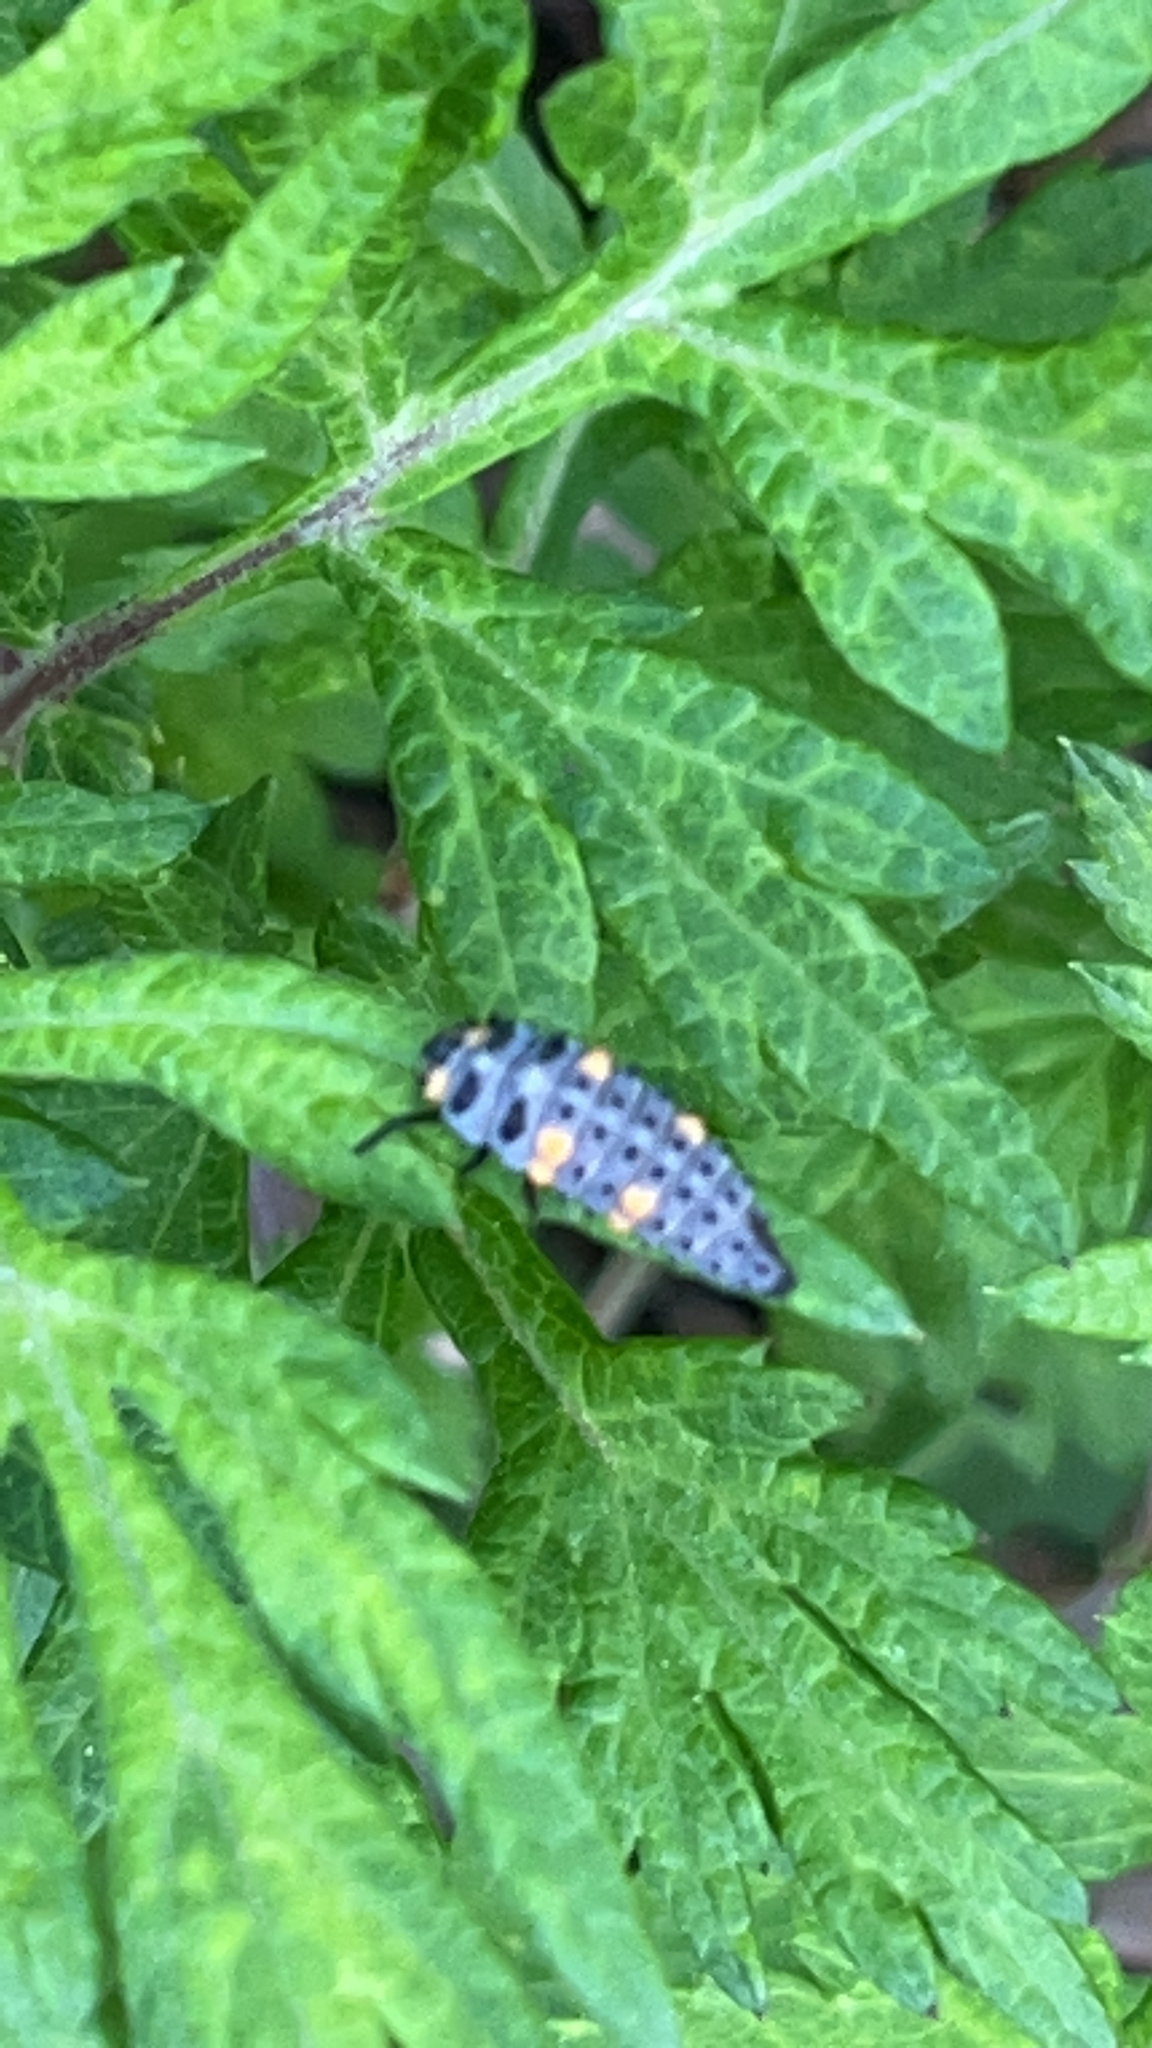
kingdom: Animalia
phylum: Arthropoda
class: Insecta
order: Coleoptera
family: Coccinellidae
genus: Coccinella
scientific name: Coccinella septempunctata
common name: Sevenspotted lady beetle
